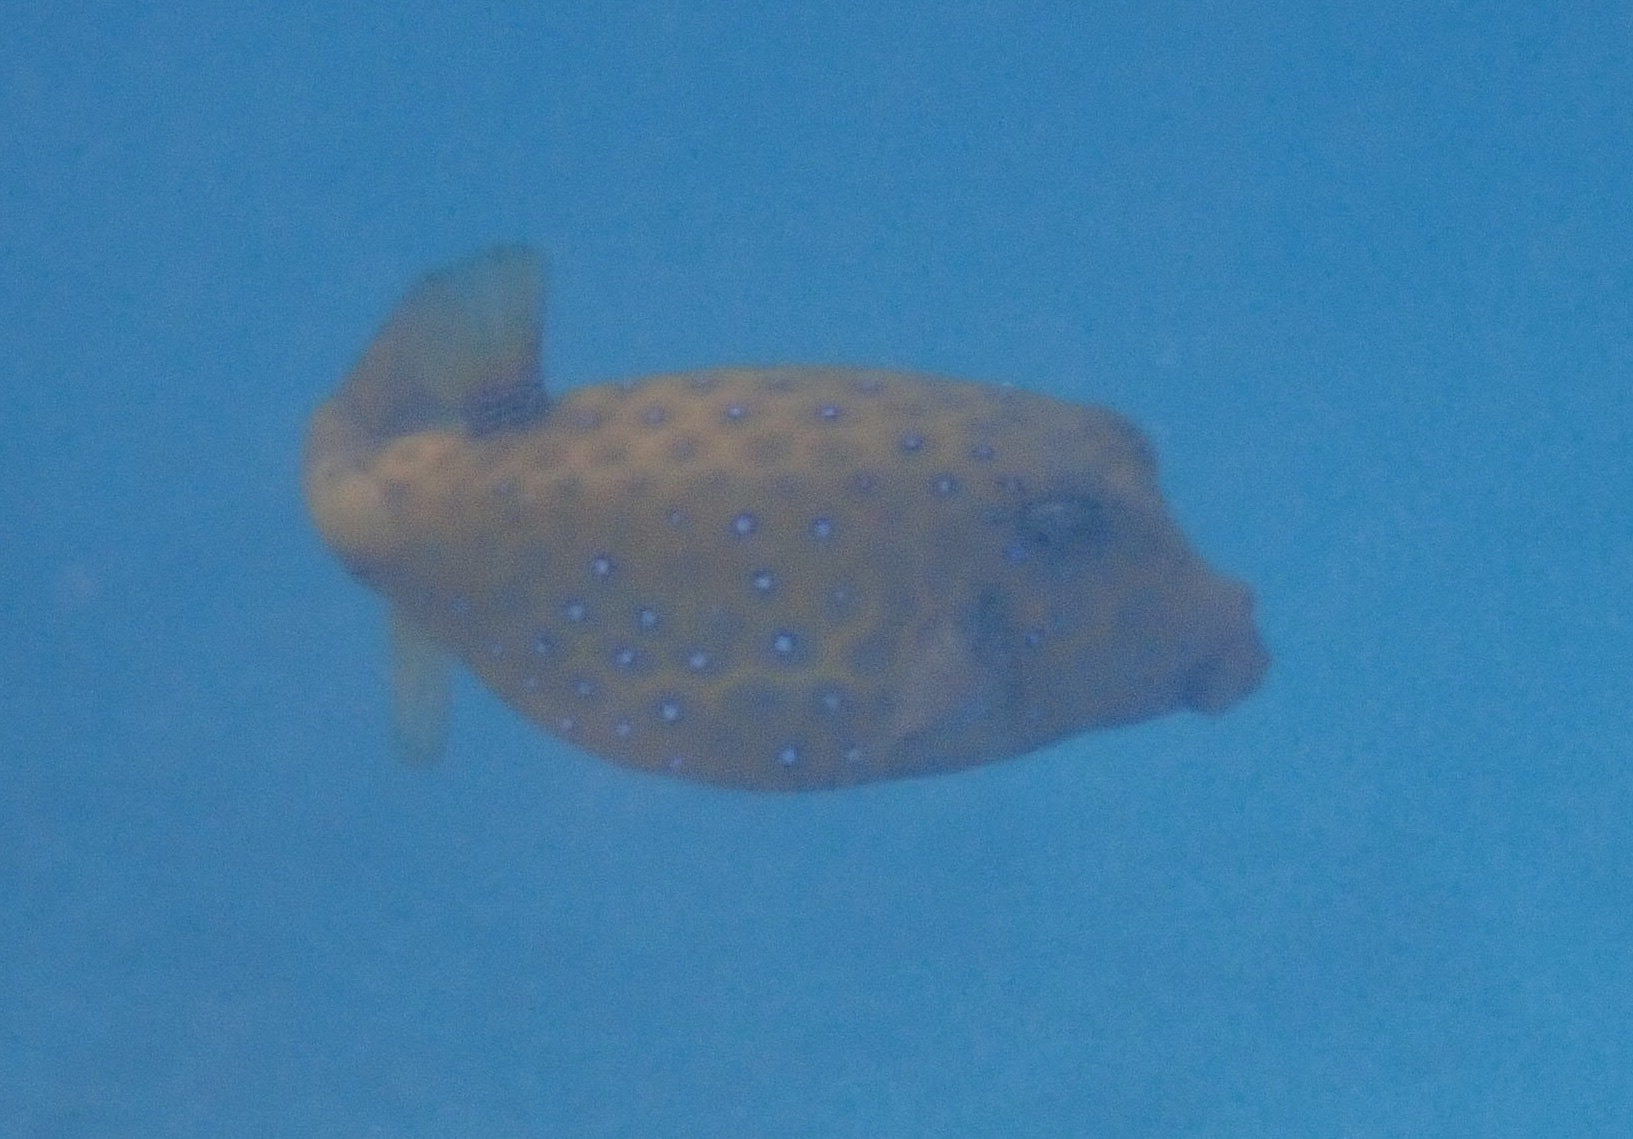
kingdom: Animalia
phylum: Chordata
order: Tetraodontiformes
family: Ostraciidae
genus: Ostracion
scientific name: Ostracion cubicus
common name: Cube trunkfish
